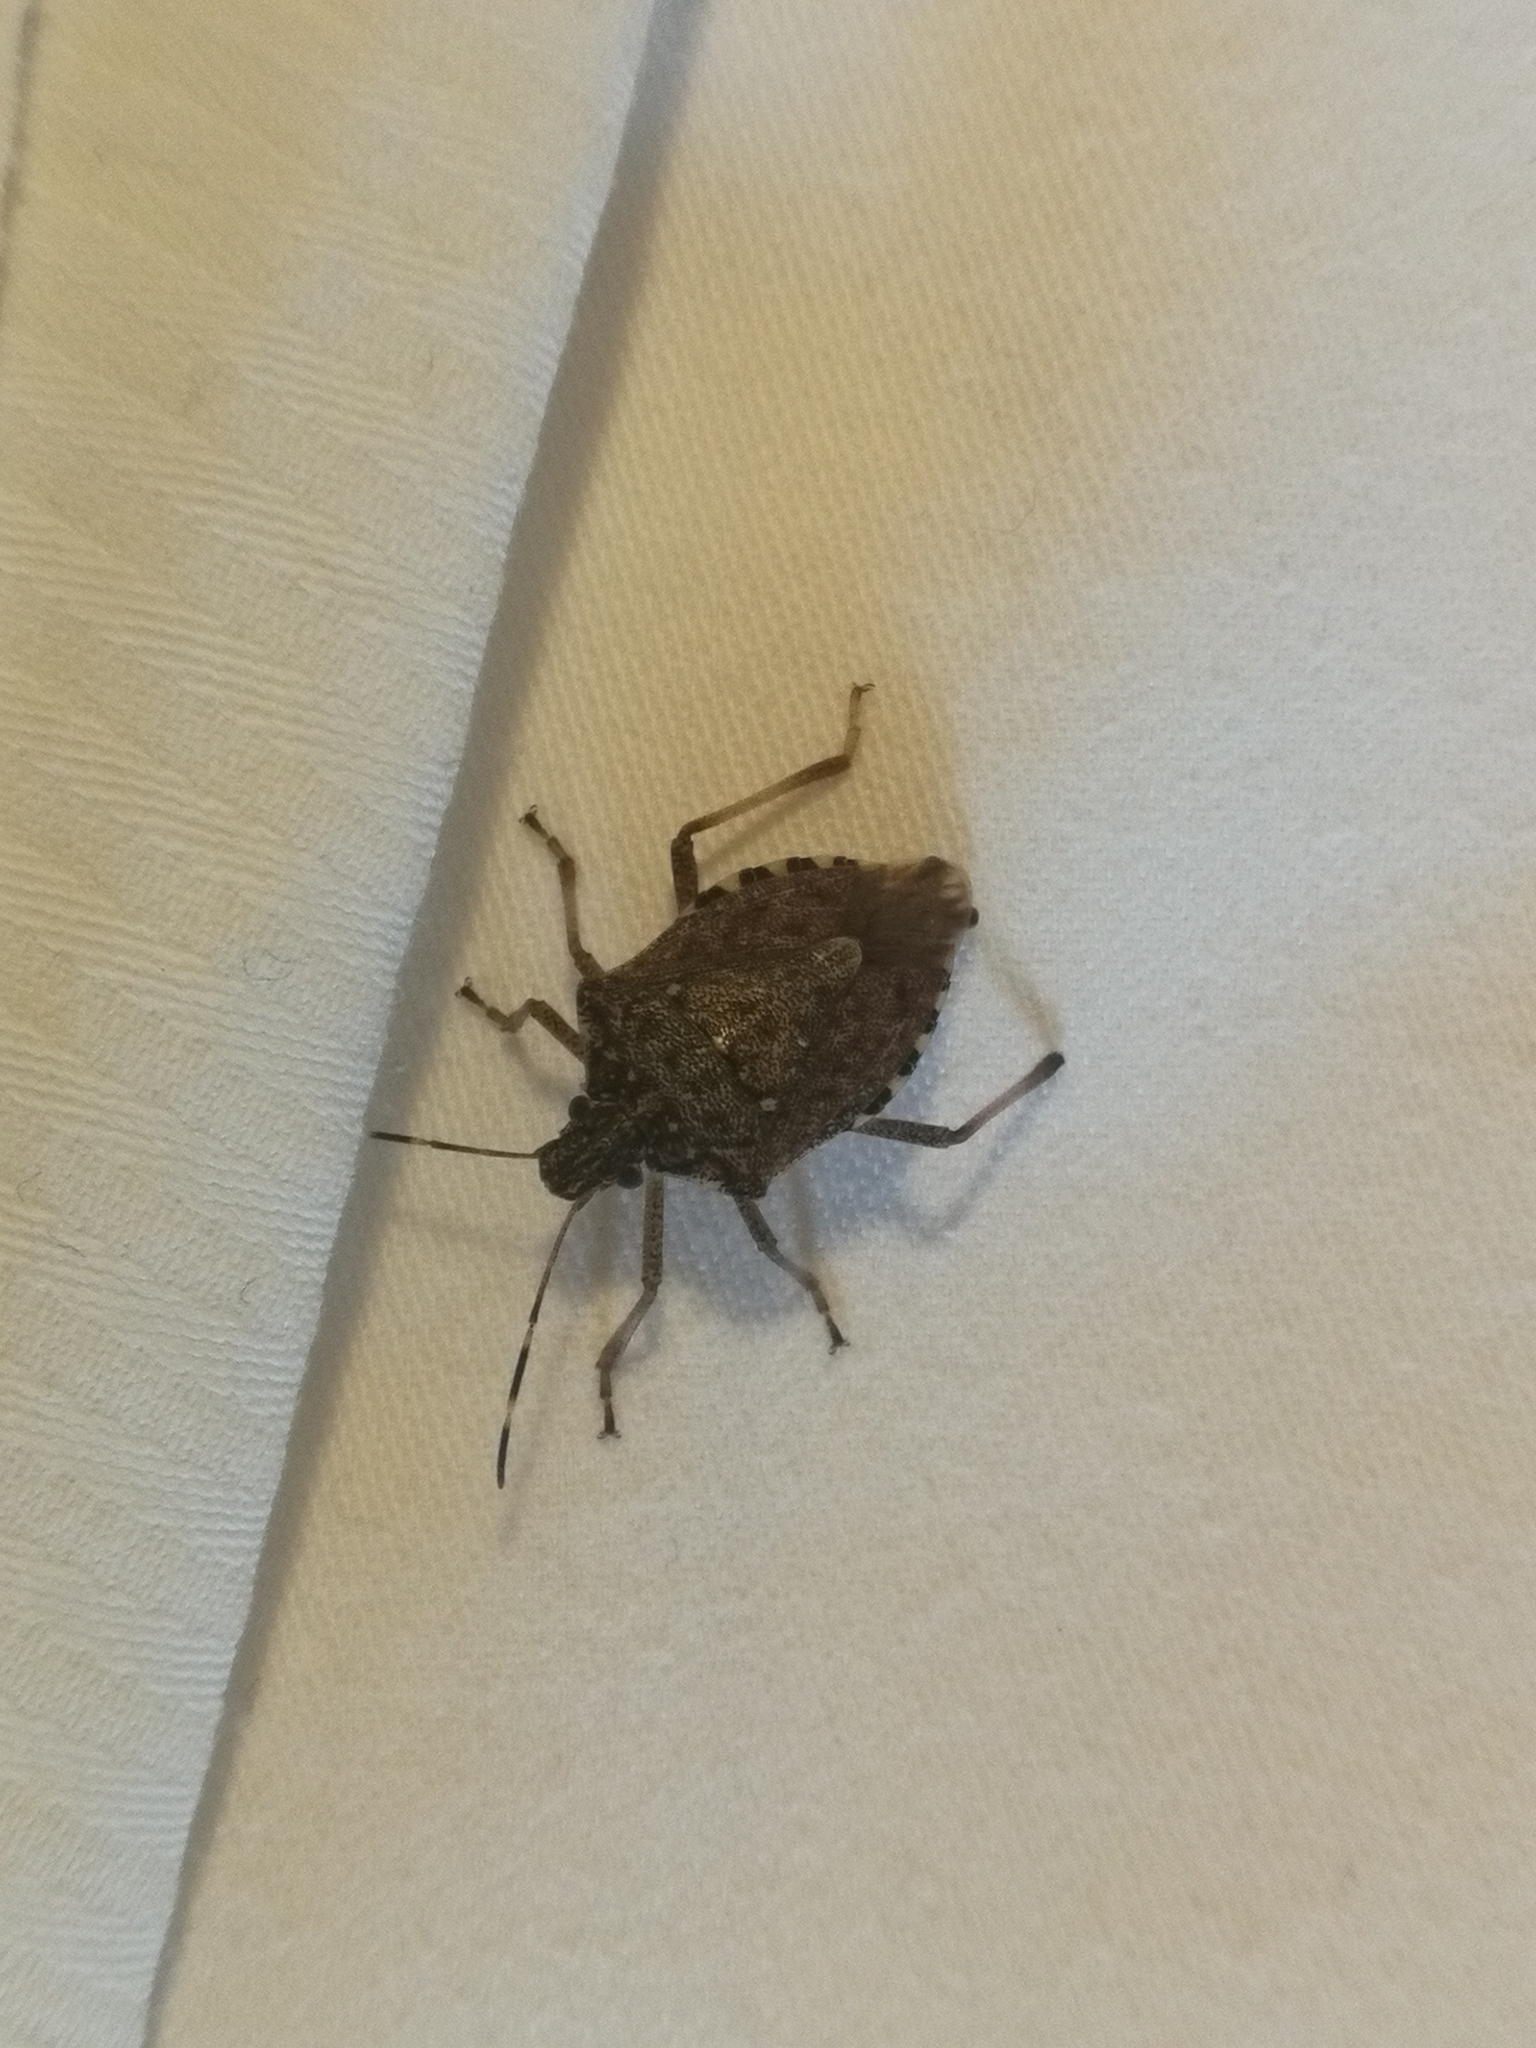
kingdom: Animalia
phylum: Arthropoda
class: Insecta
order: Hemiptera
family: Pentatomidae
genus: Halyomorpha
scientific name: Halyomorpha halys
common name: Brown marmorated stink bug
